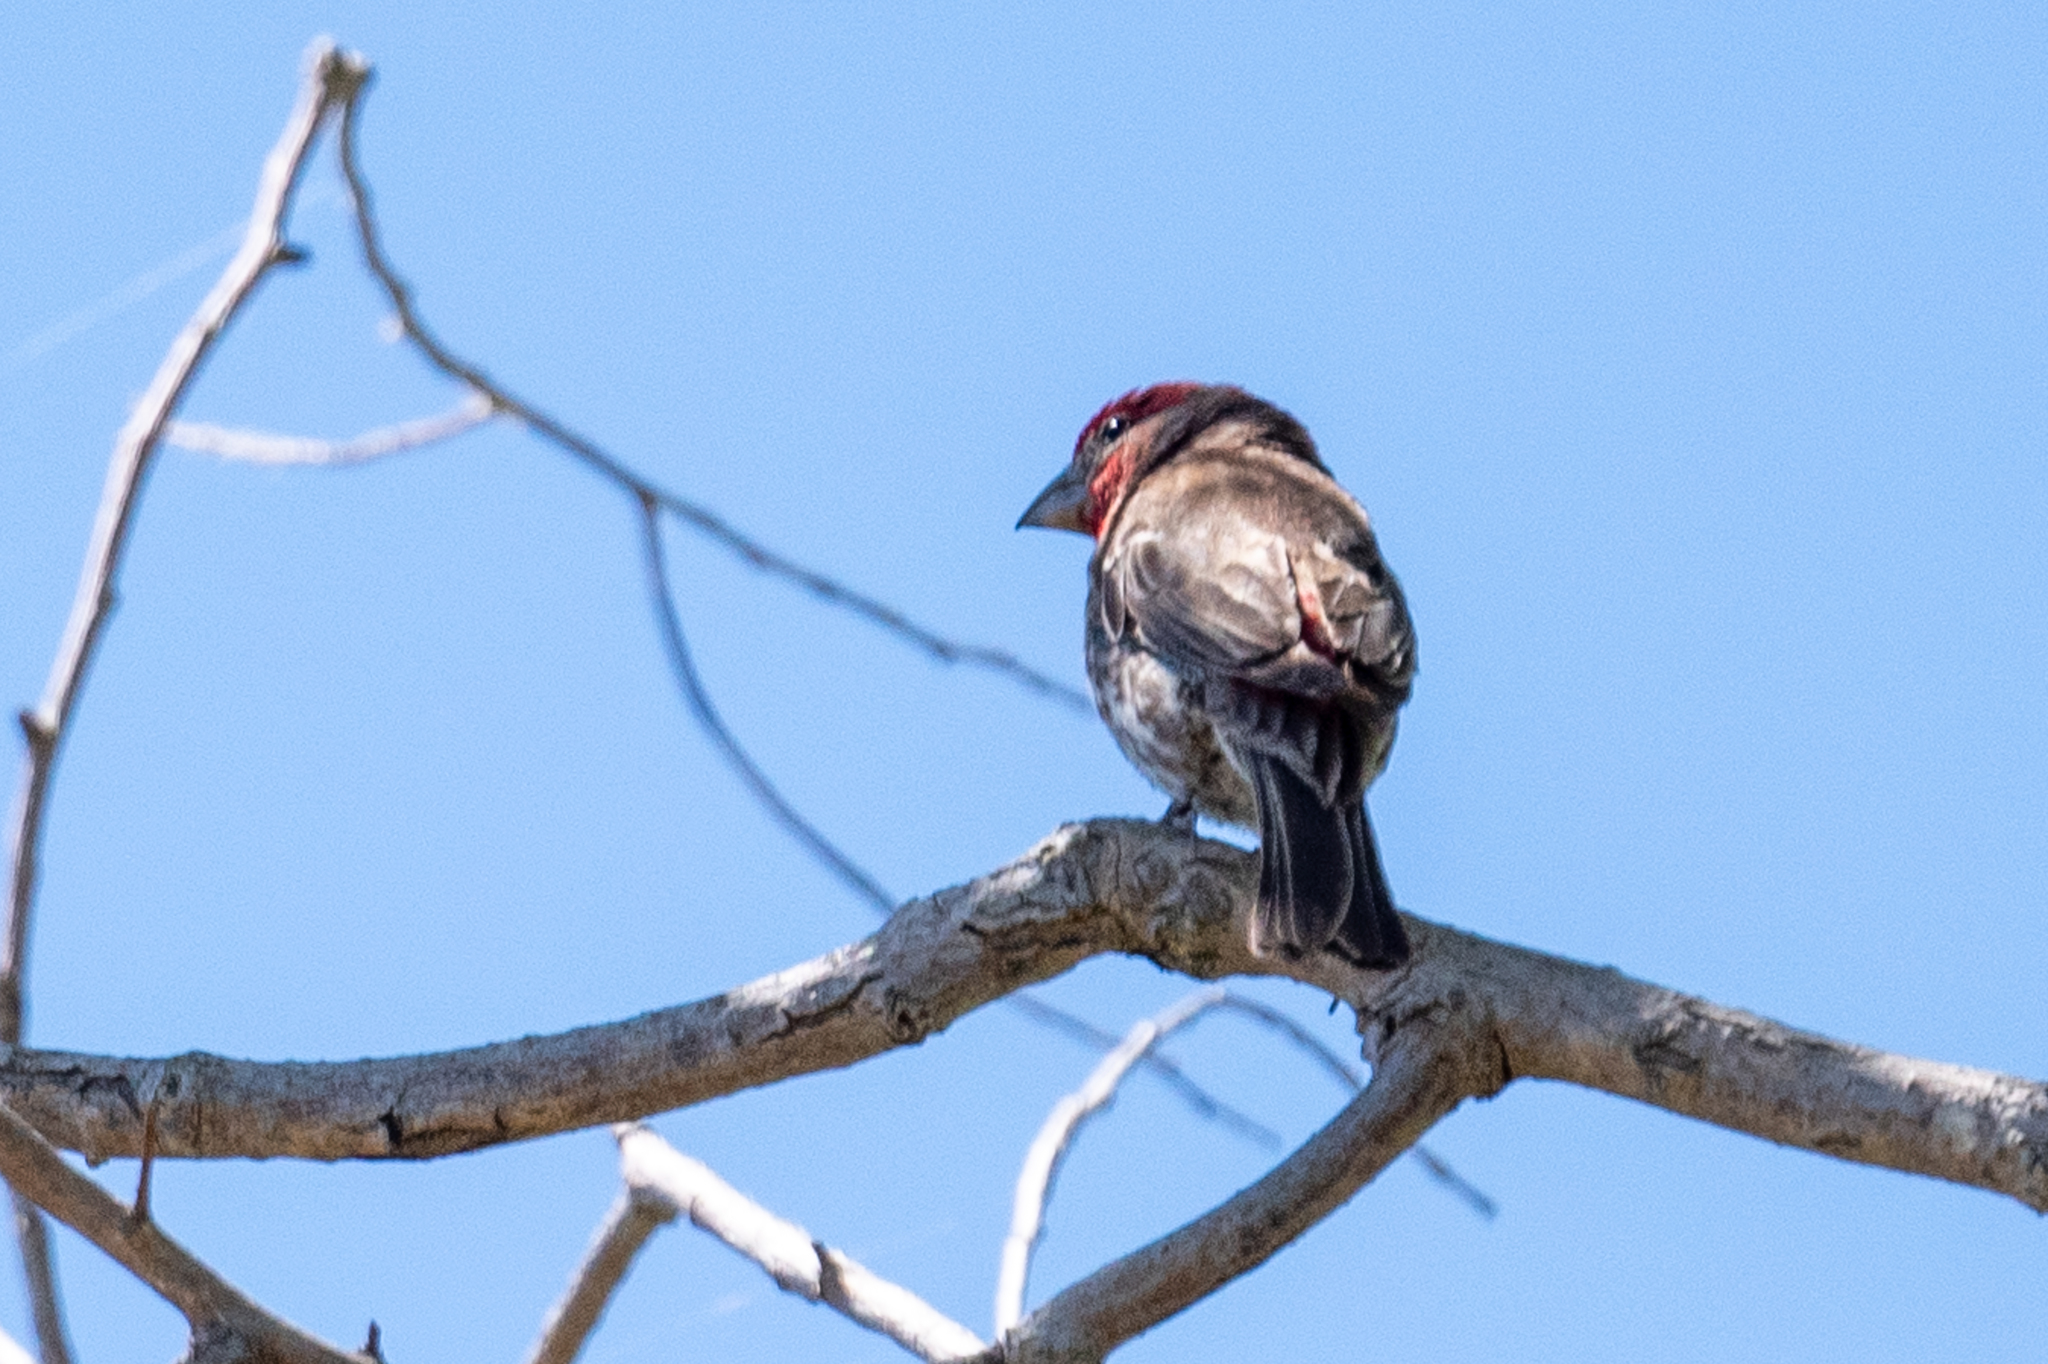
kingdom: Animalia
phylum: Chordata
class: Aves
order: Passeriformes
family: Fringillidae
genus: Haemorhous
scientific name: Haemorhous mexicanus
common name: House finch
